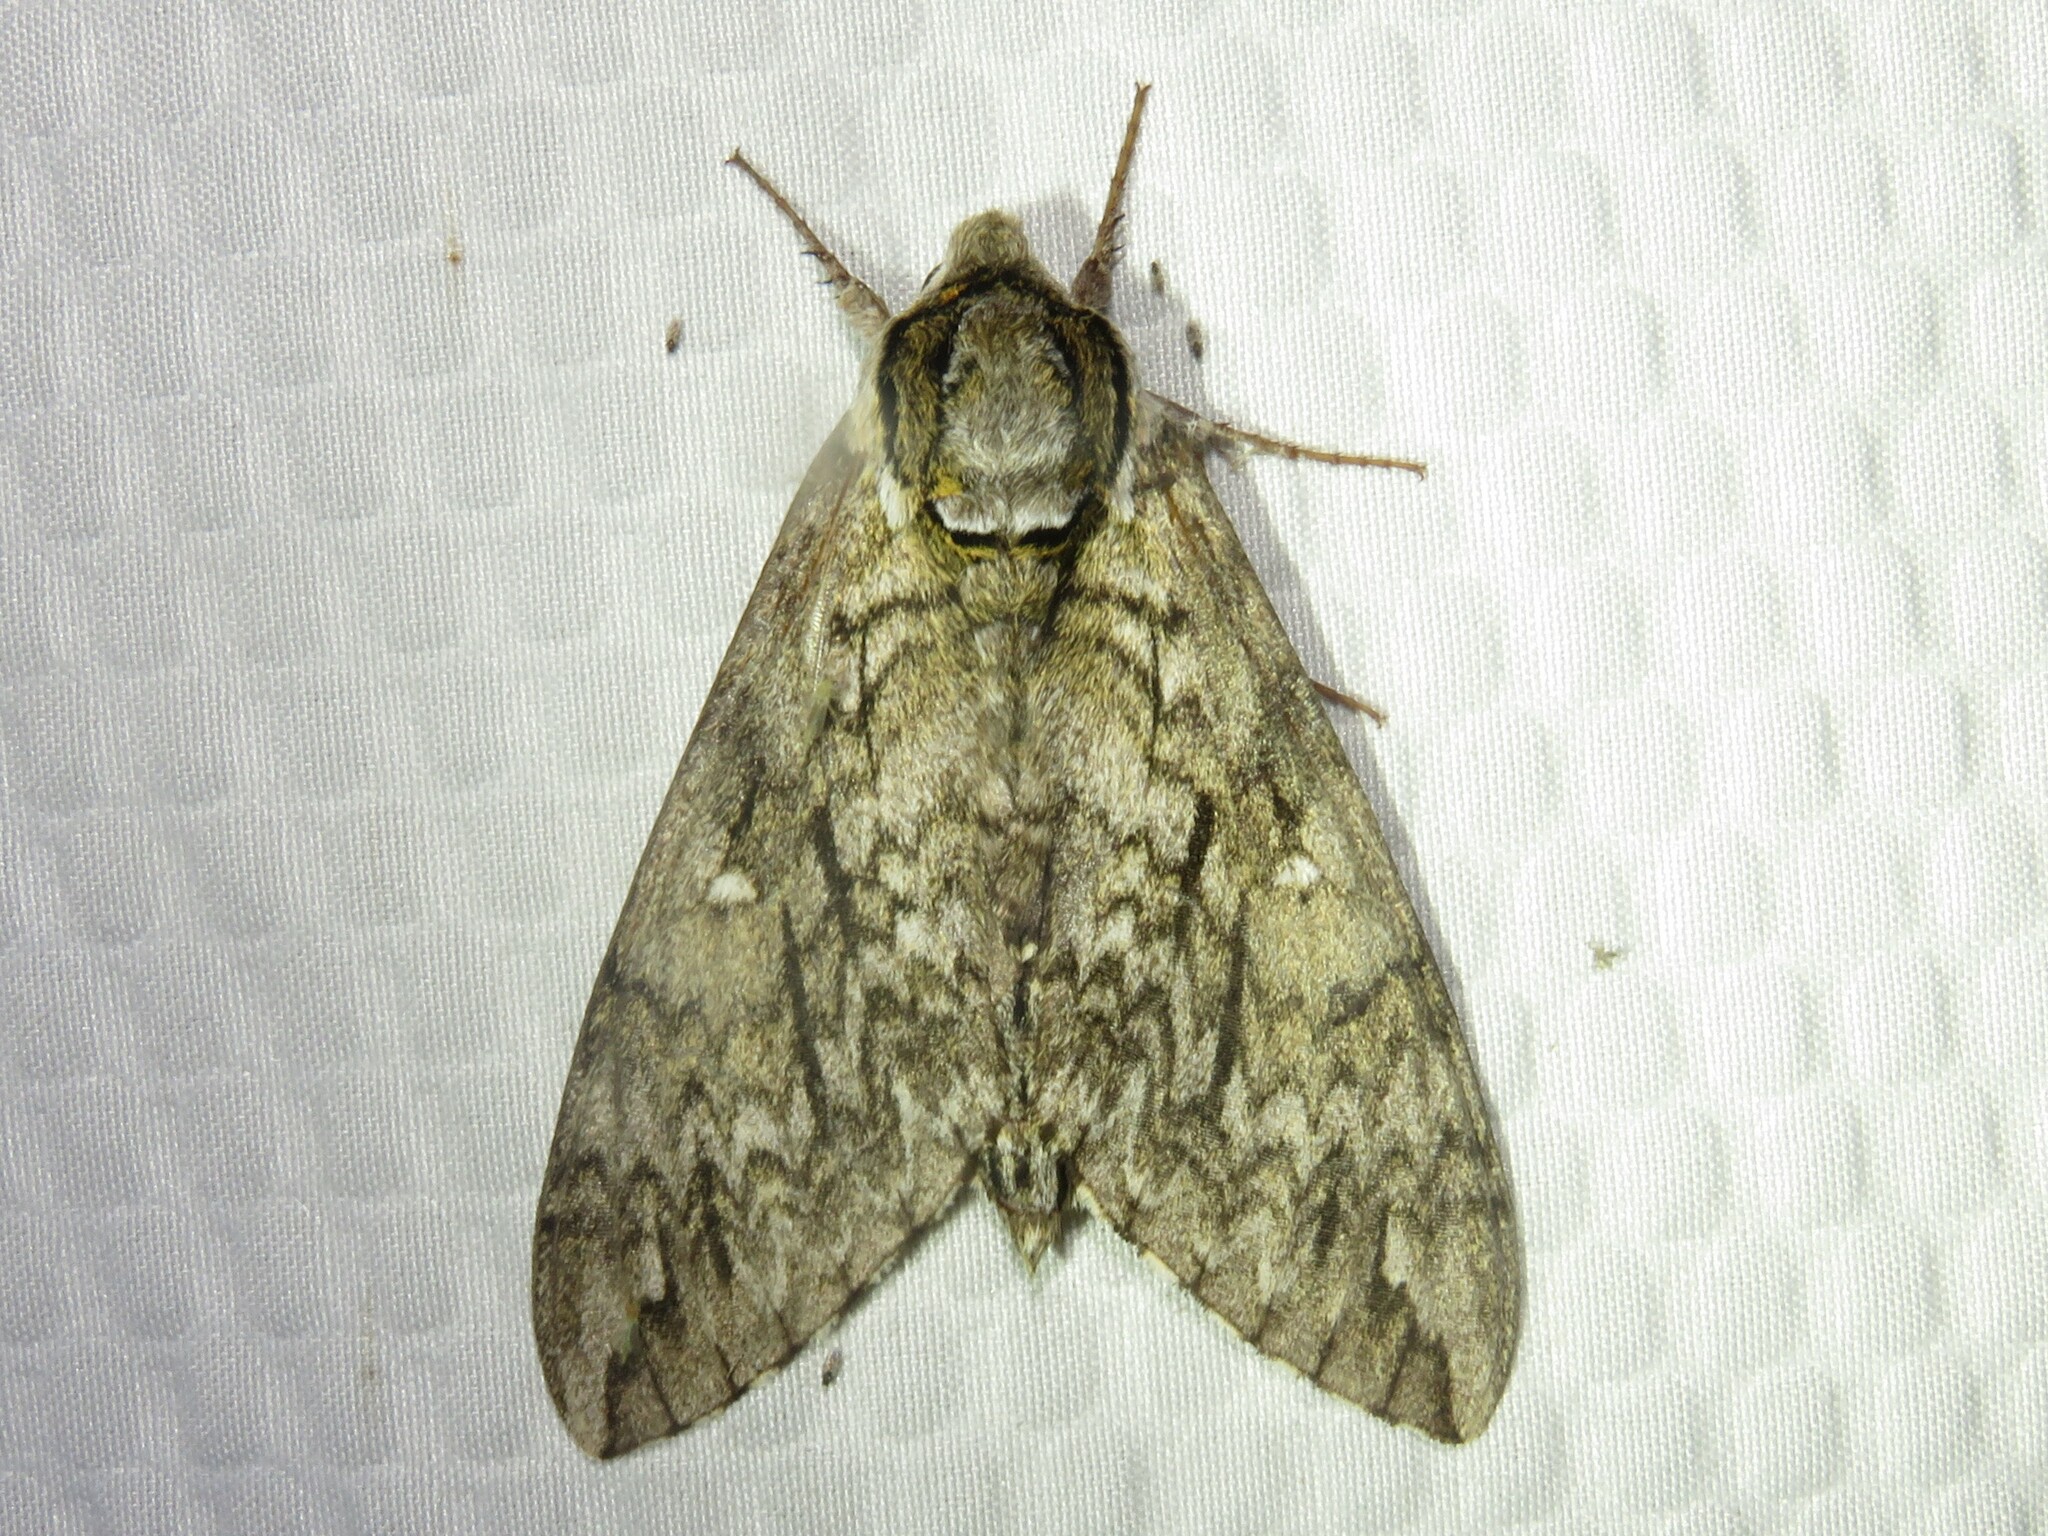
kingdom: Animalia
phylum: Arthropoda
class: Insecta
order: Lepidoptera
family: Sphingidae
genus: Ceratomia
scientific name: Ceratomia undulosa
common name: Waved sphinx
